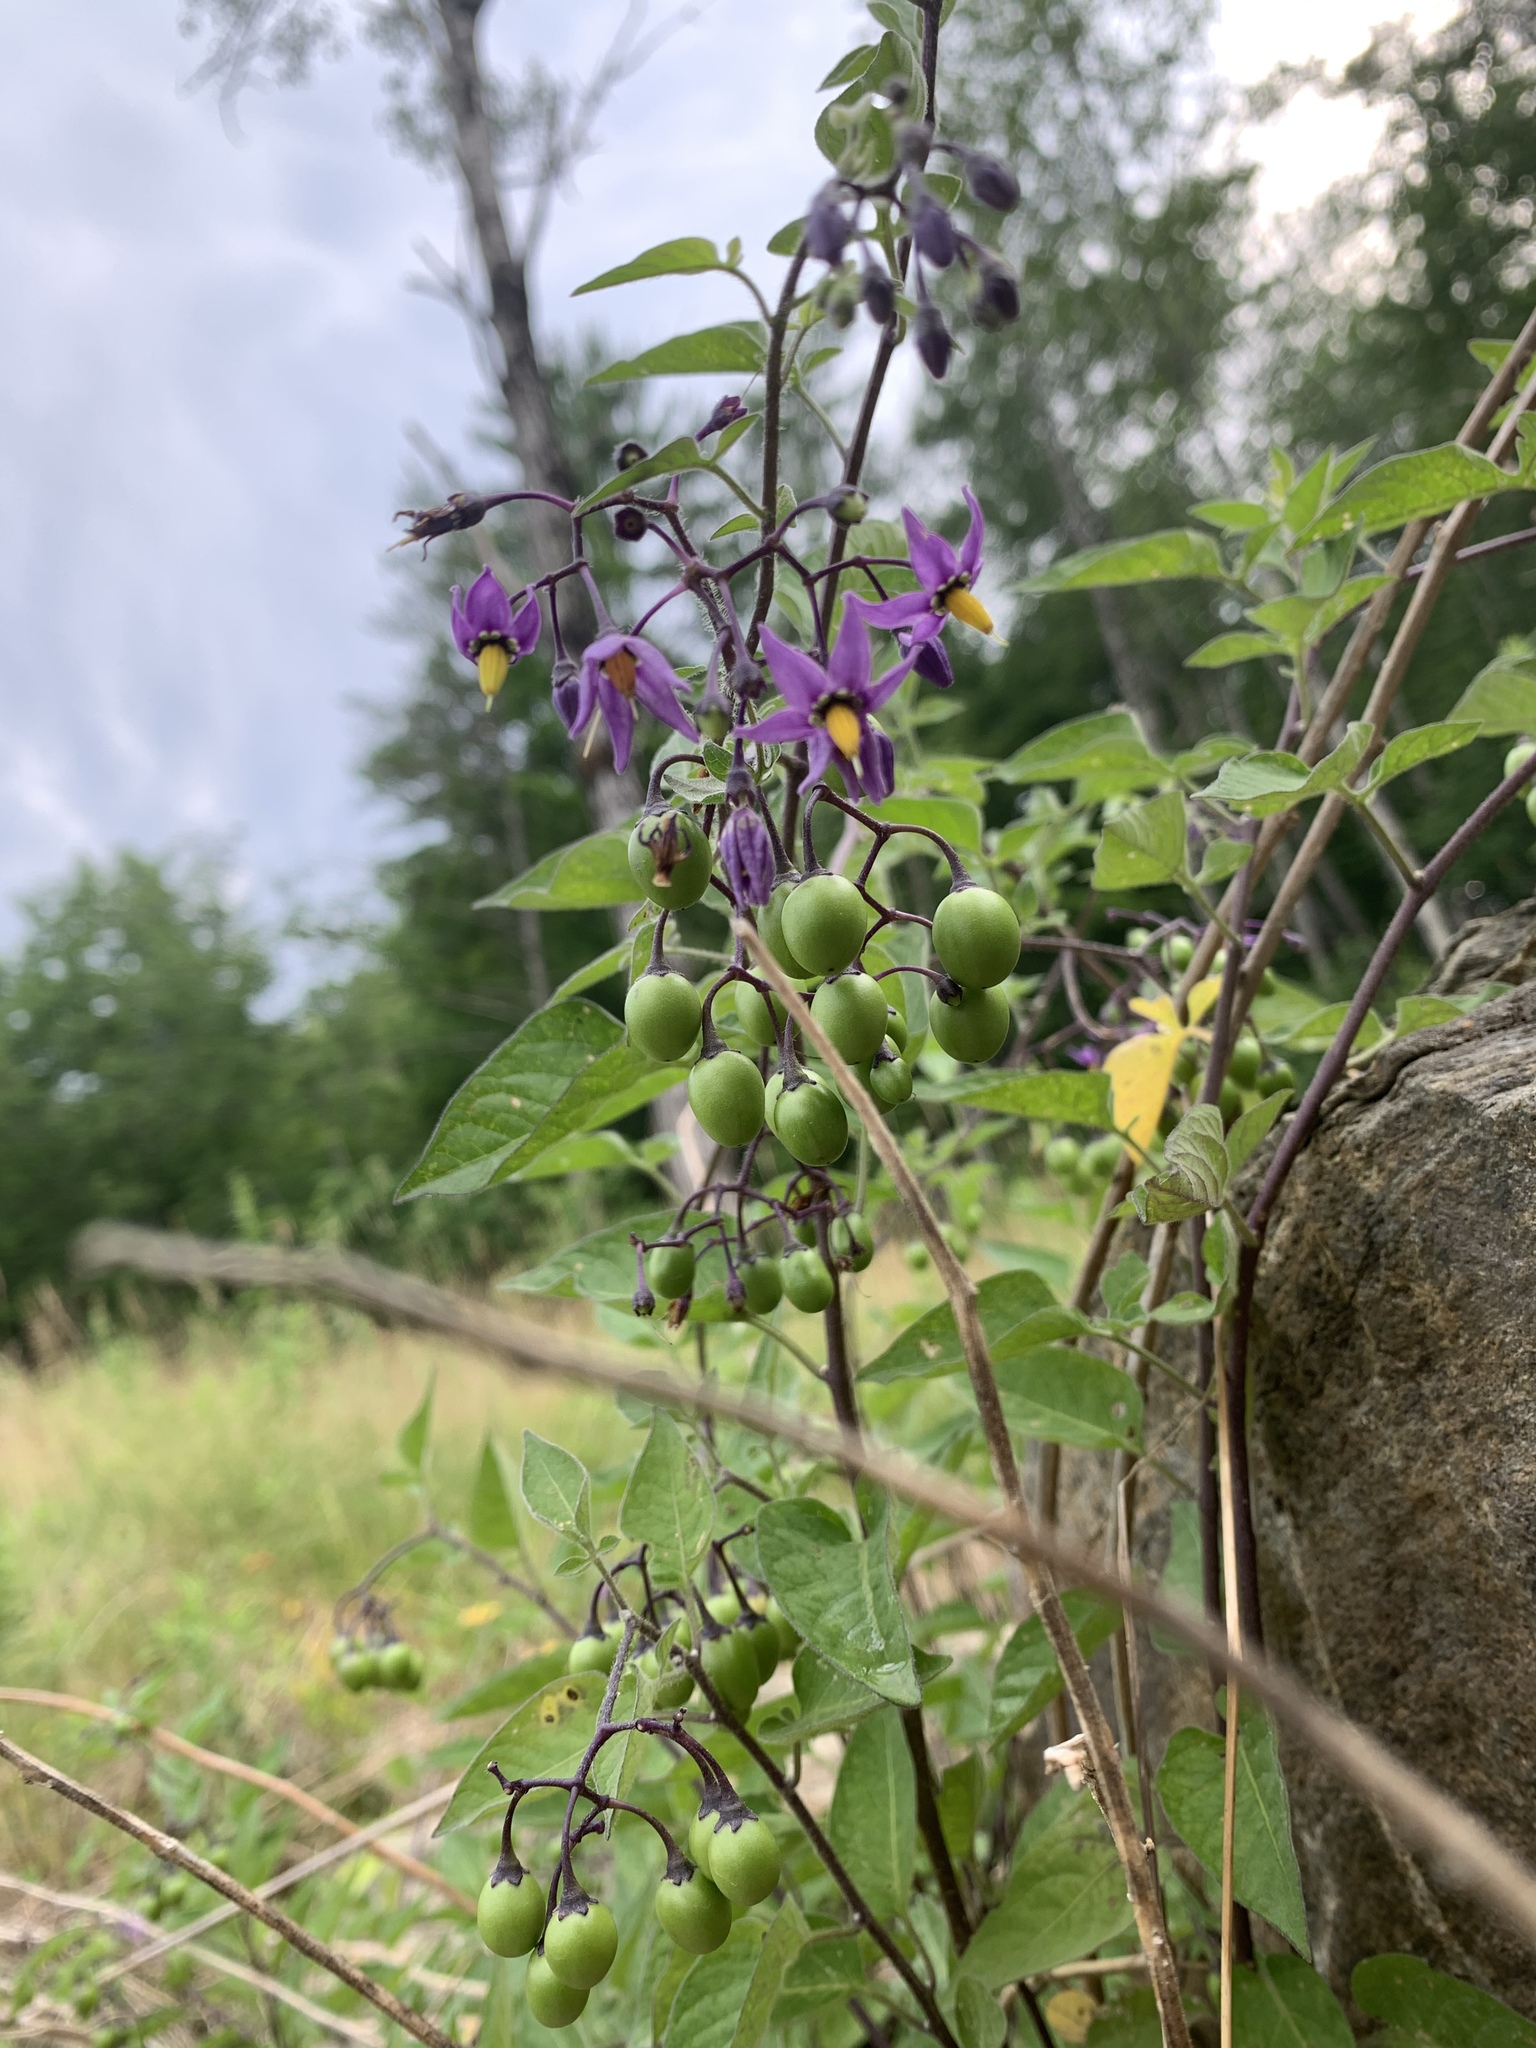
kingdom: Plantae
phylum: Tracheophyta
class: Magnoliopsida
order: Solanales
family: Solanaceae
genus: Solanum
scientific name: Solanum dulcamara
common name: Climbing nightshade
